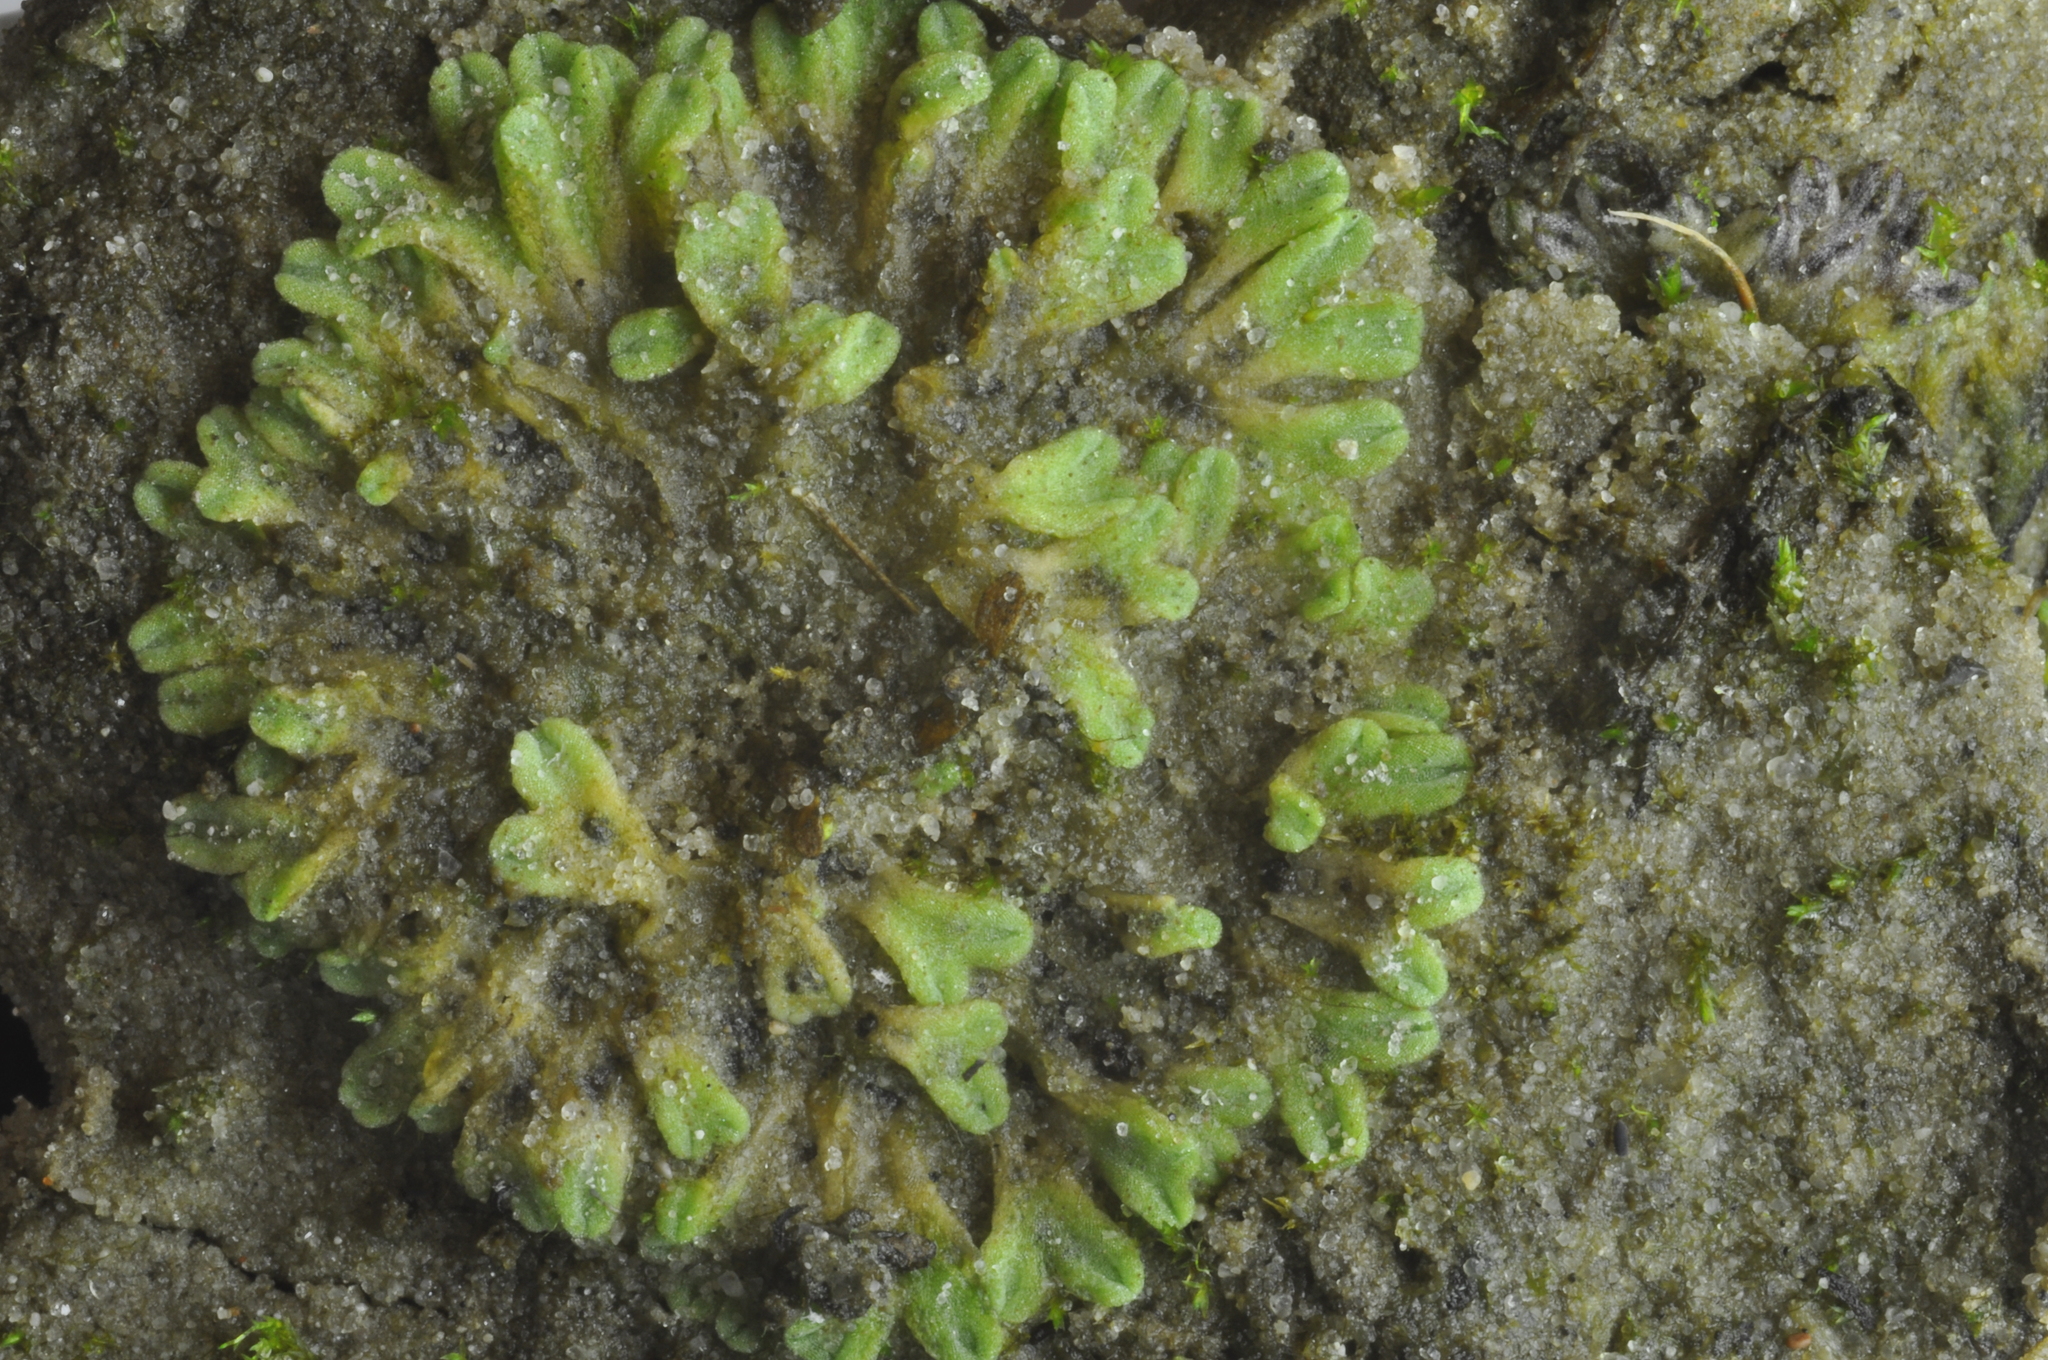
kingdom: Plantae
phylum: Marchantiophyta
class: Marchantiopsida
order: Marchantiales
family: Ricciaceae
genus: Riccia
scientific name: Riccia bifurca
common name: Lizard crystalwort
